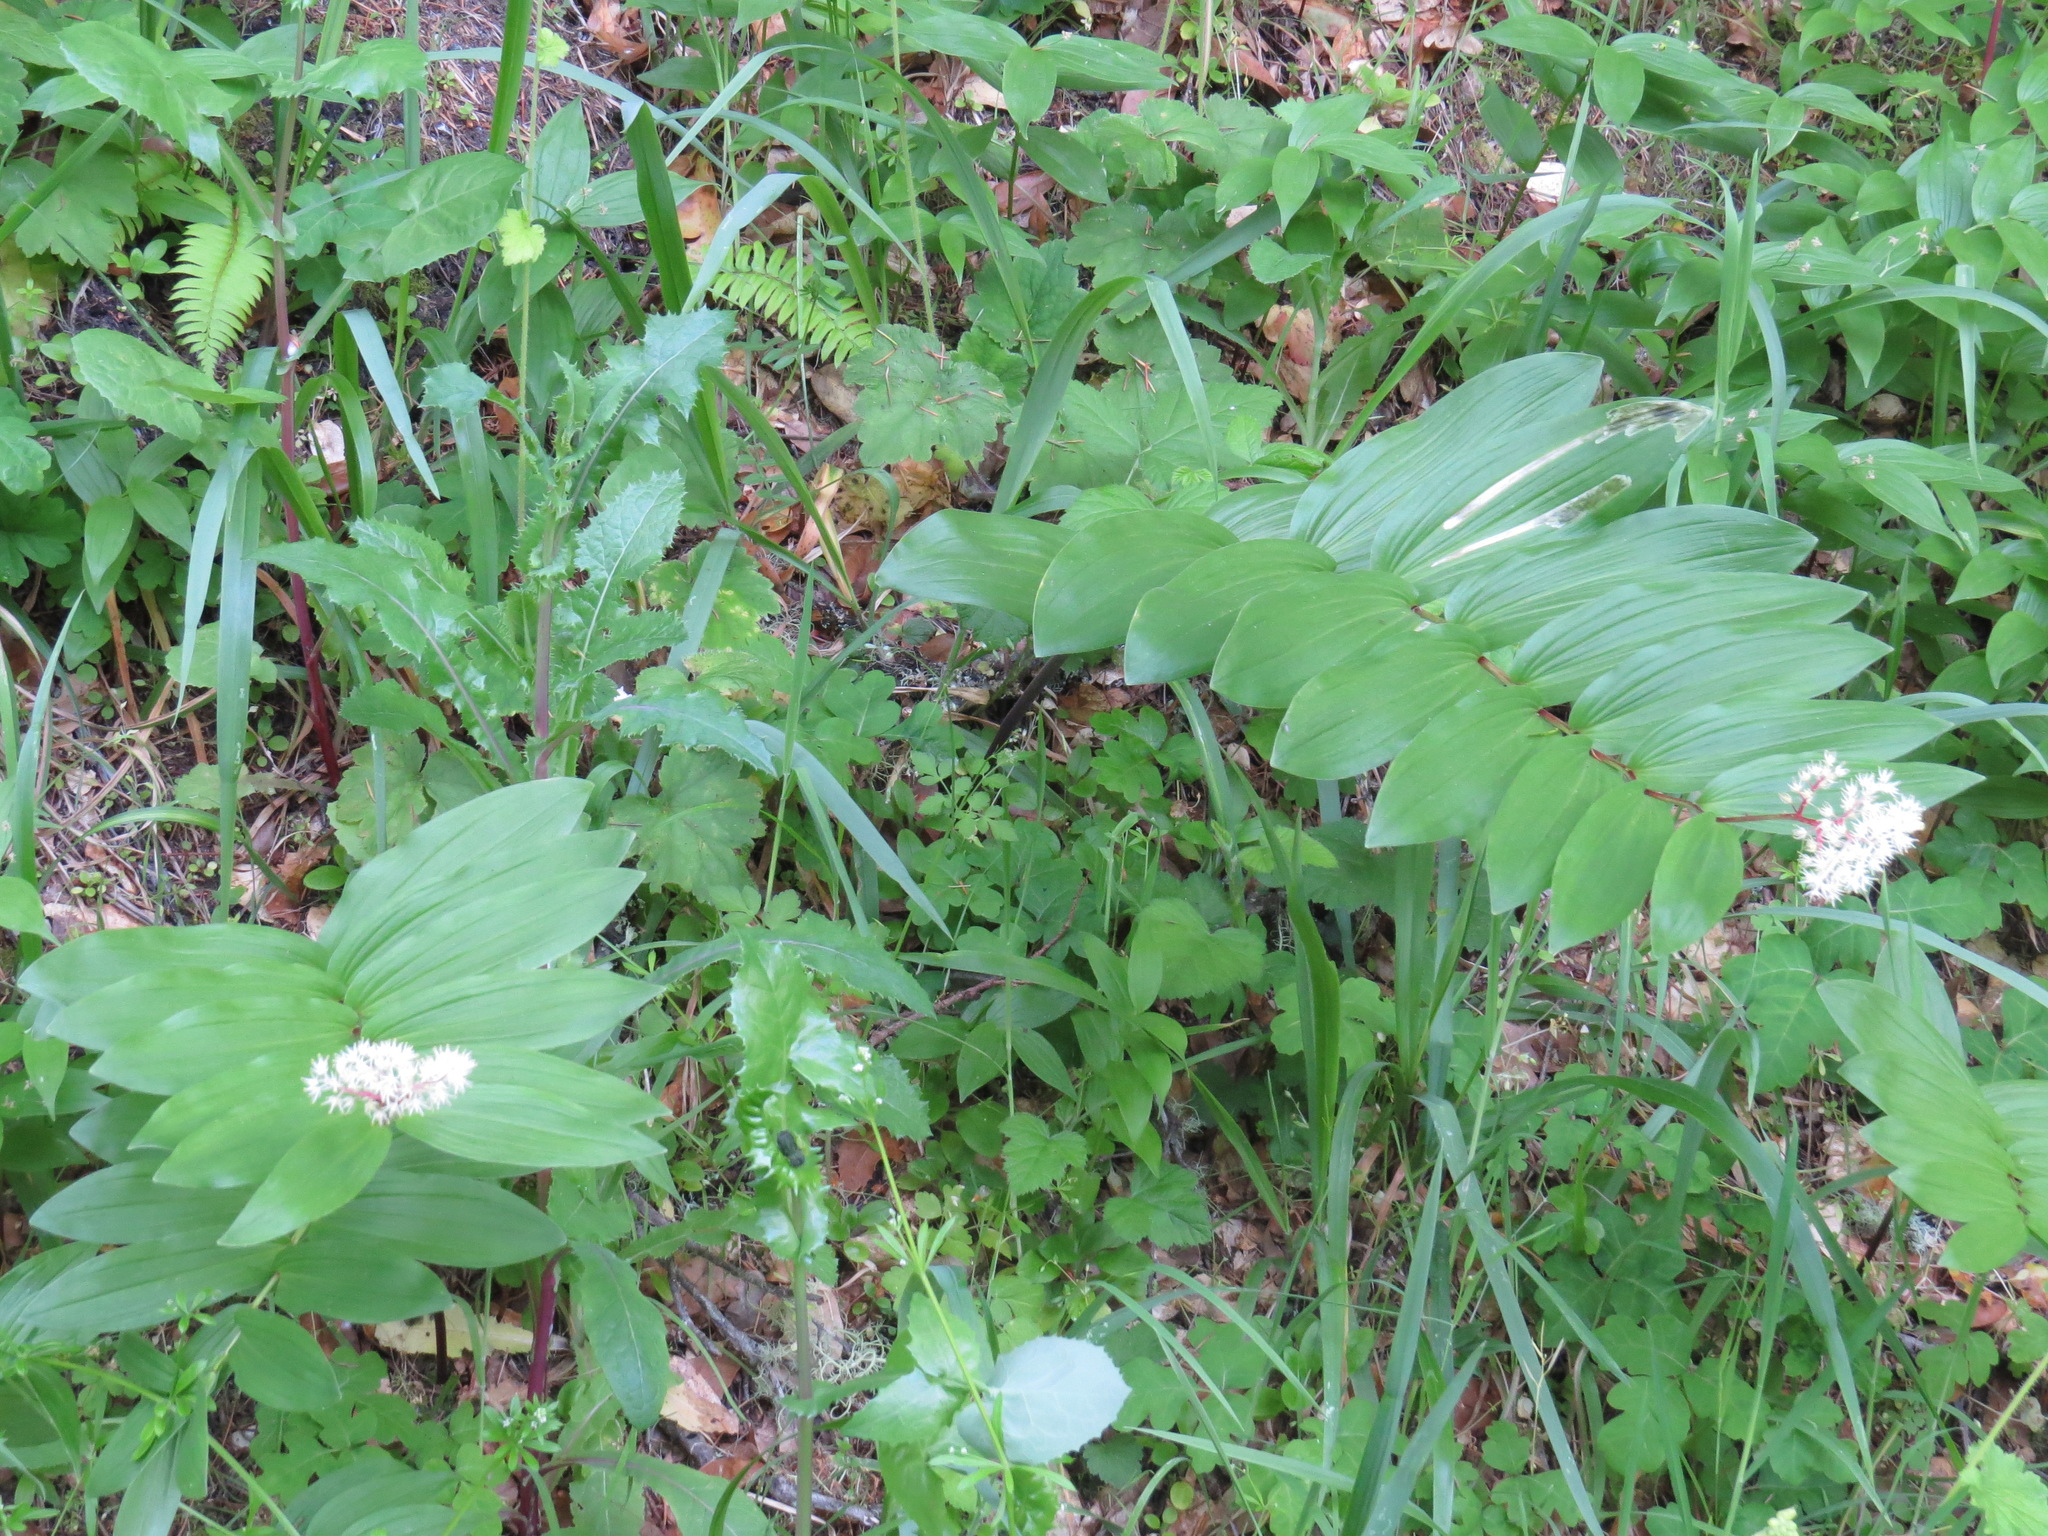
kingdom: Plantae
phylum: Tracheophyta
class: Liliopsida
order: Asparagales
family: Asparagaceae
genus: Maianthemum
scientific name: Maianthemum racemosum
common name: False spikenard
